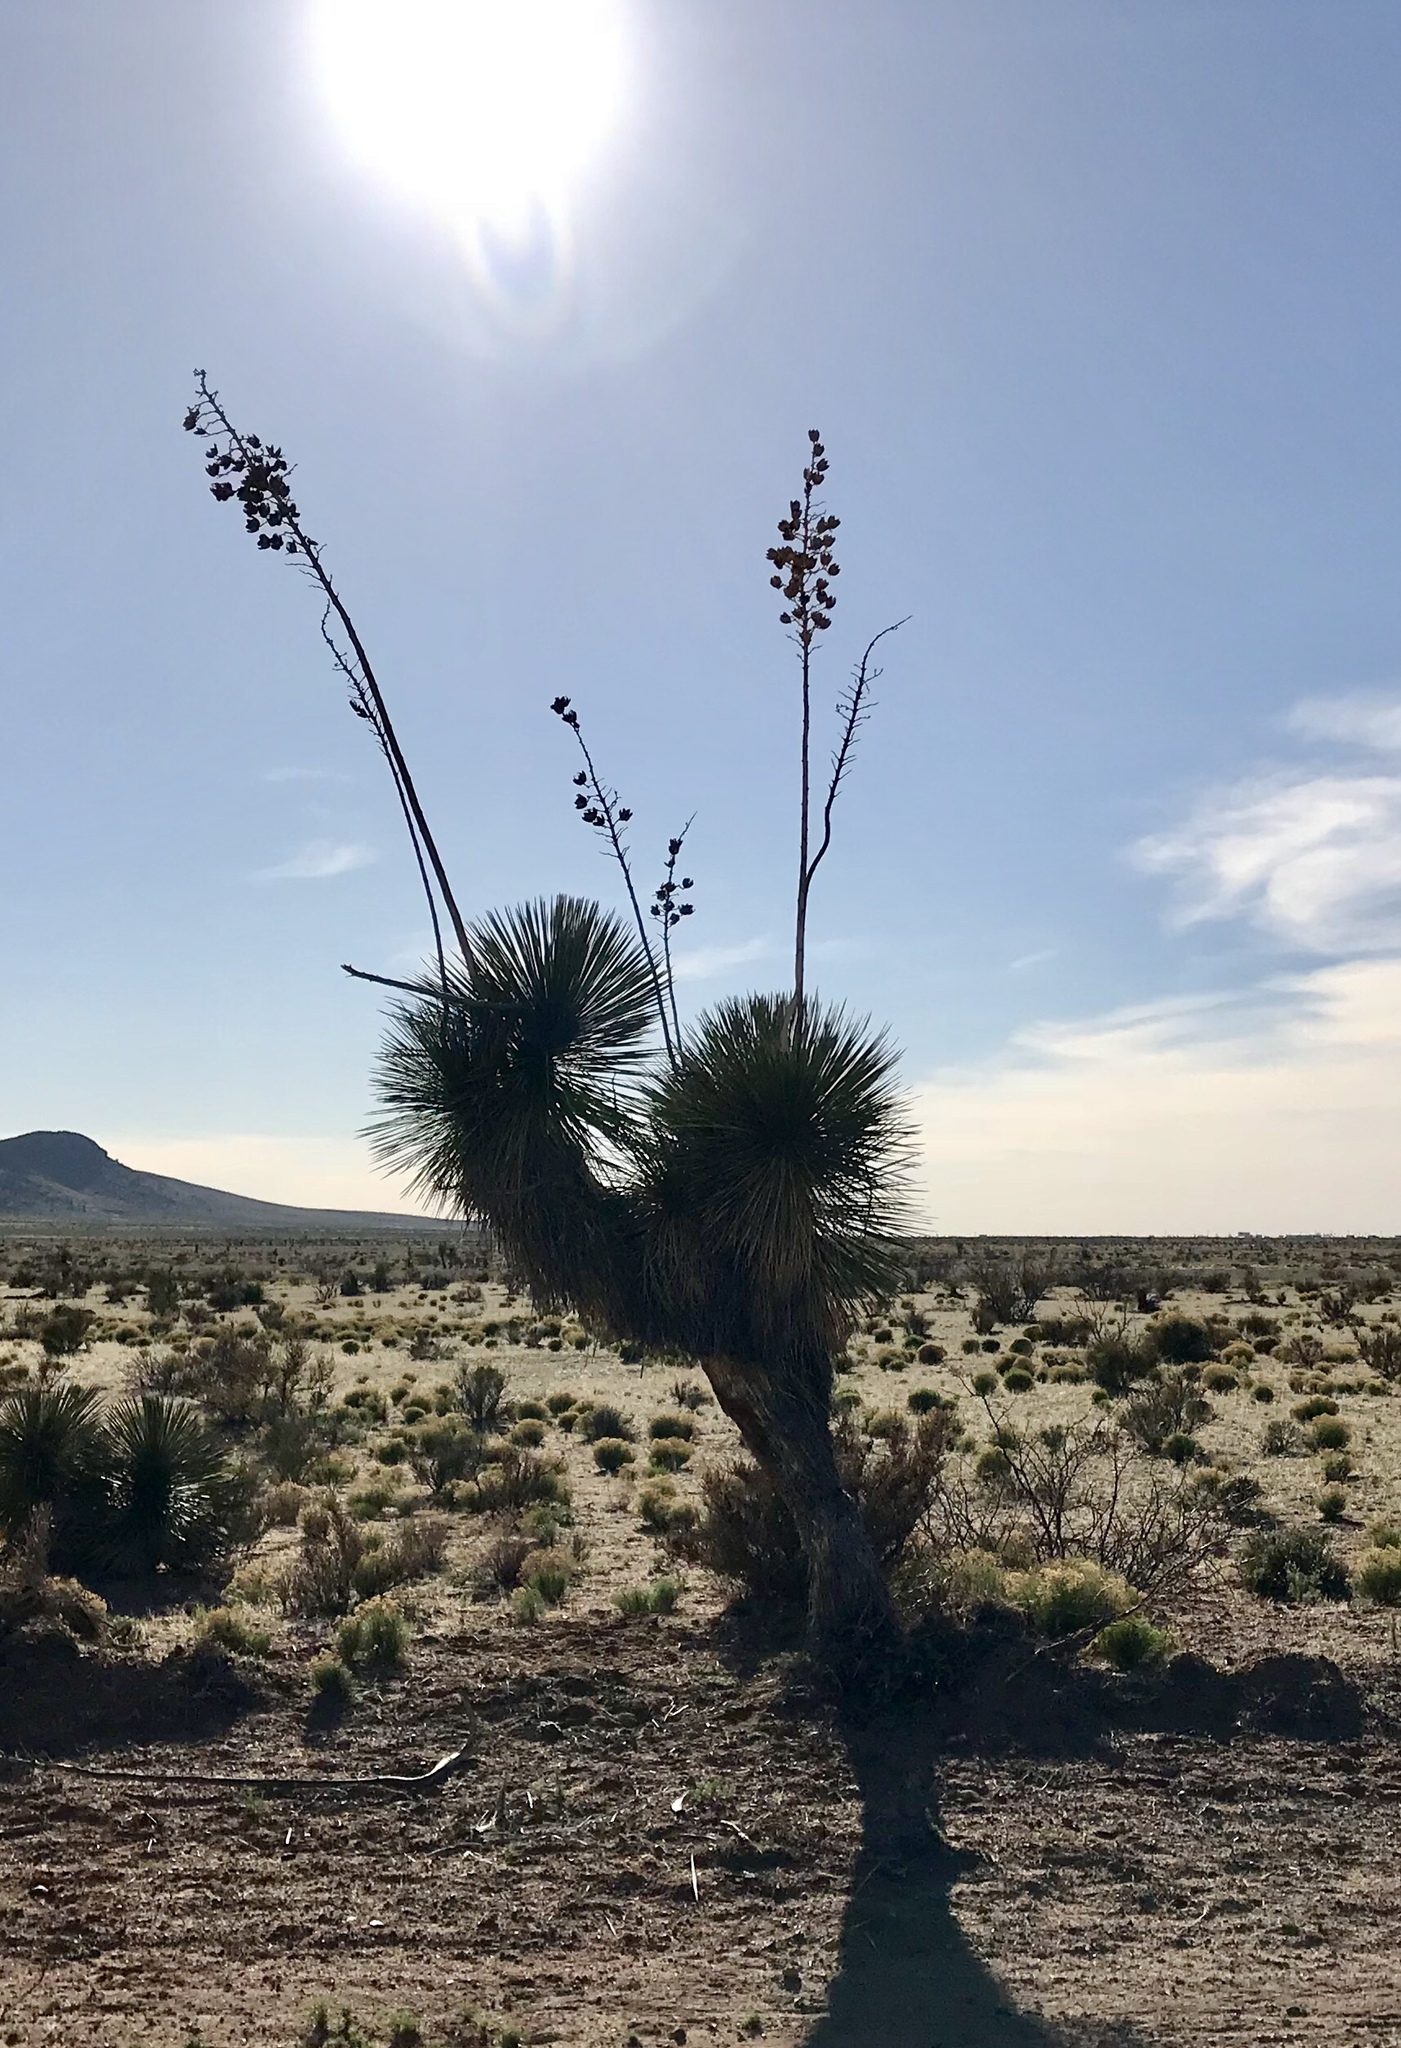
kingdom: Plantae
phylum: Tracheophyta
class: Liliopsida
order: Asparagales
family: Asparagaceae
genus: Yucca
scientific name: Yucca elata
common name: Palmella
